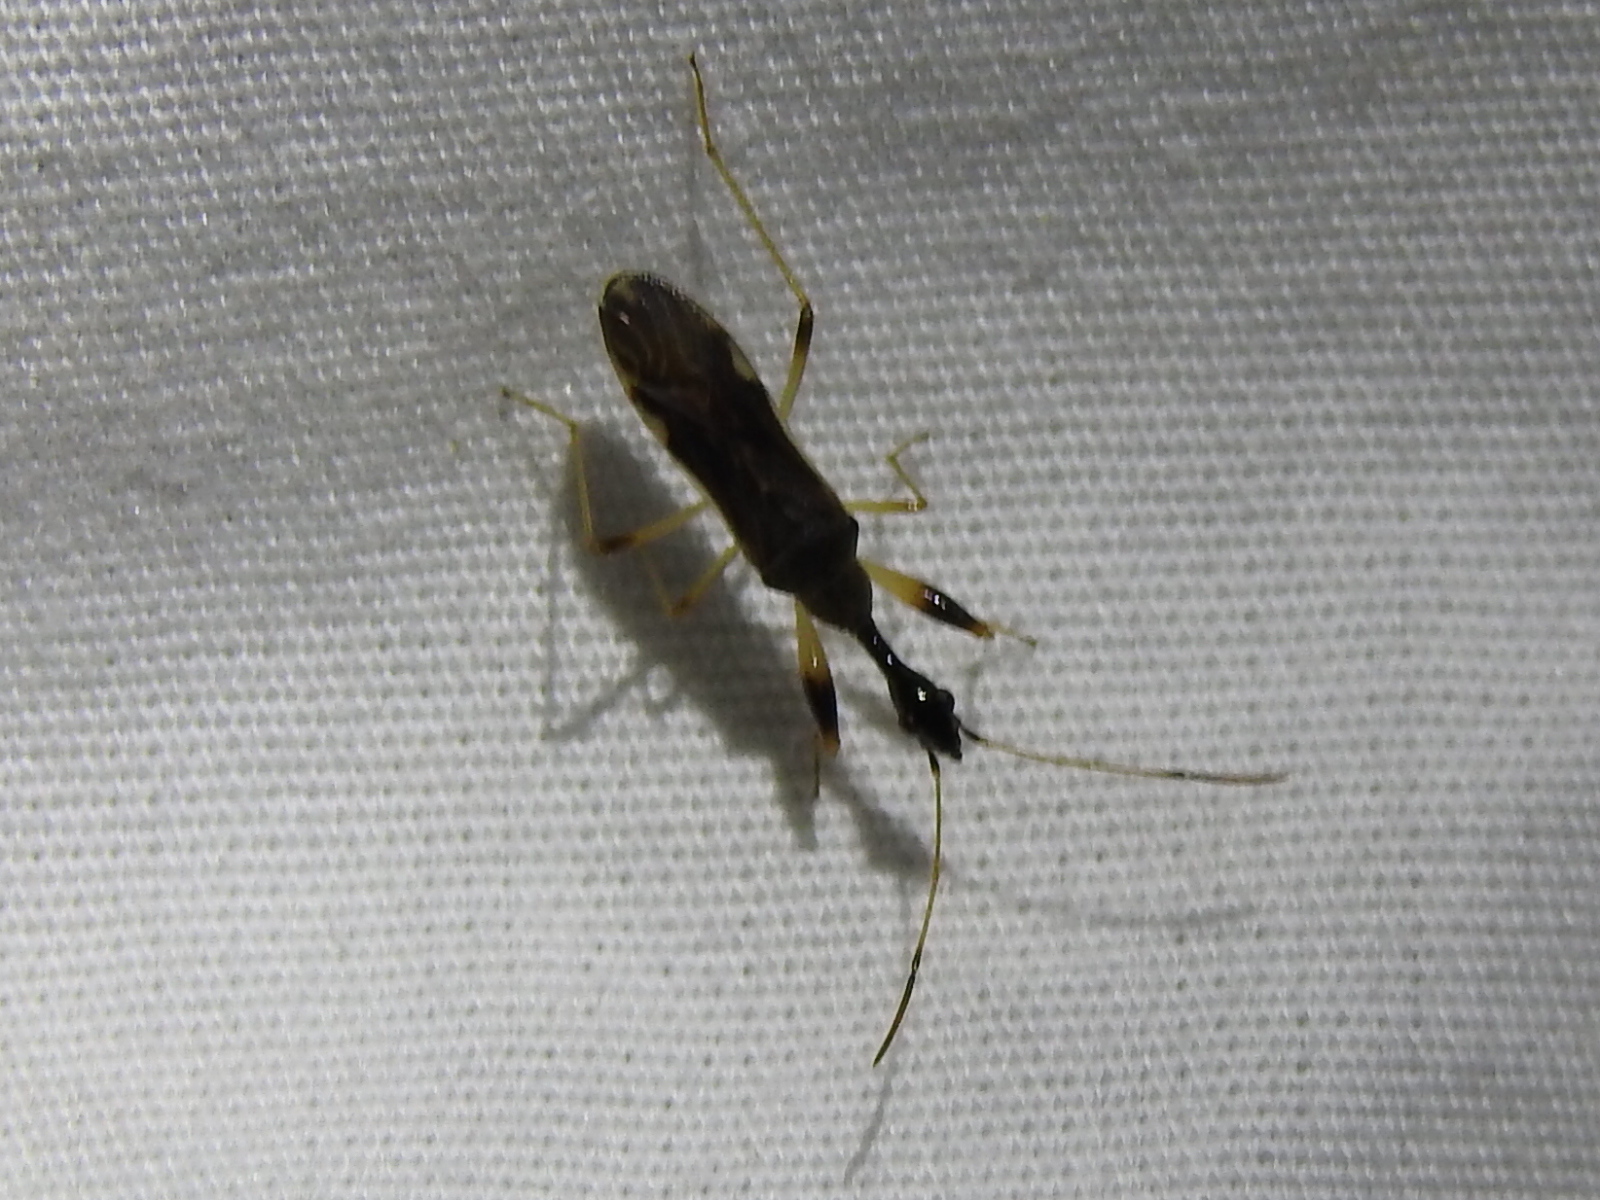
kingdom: Animalia
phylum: Arthropoda
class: Insecta
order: Hemiptera
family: Rhyparochromidae
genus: Myodocha
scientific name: Myodocha serripes
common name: Long-necked seed bug
